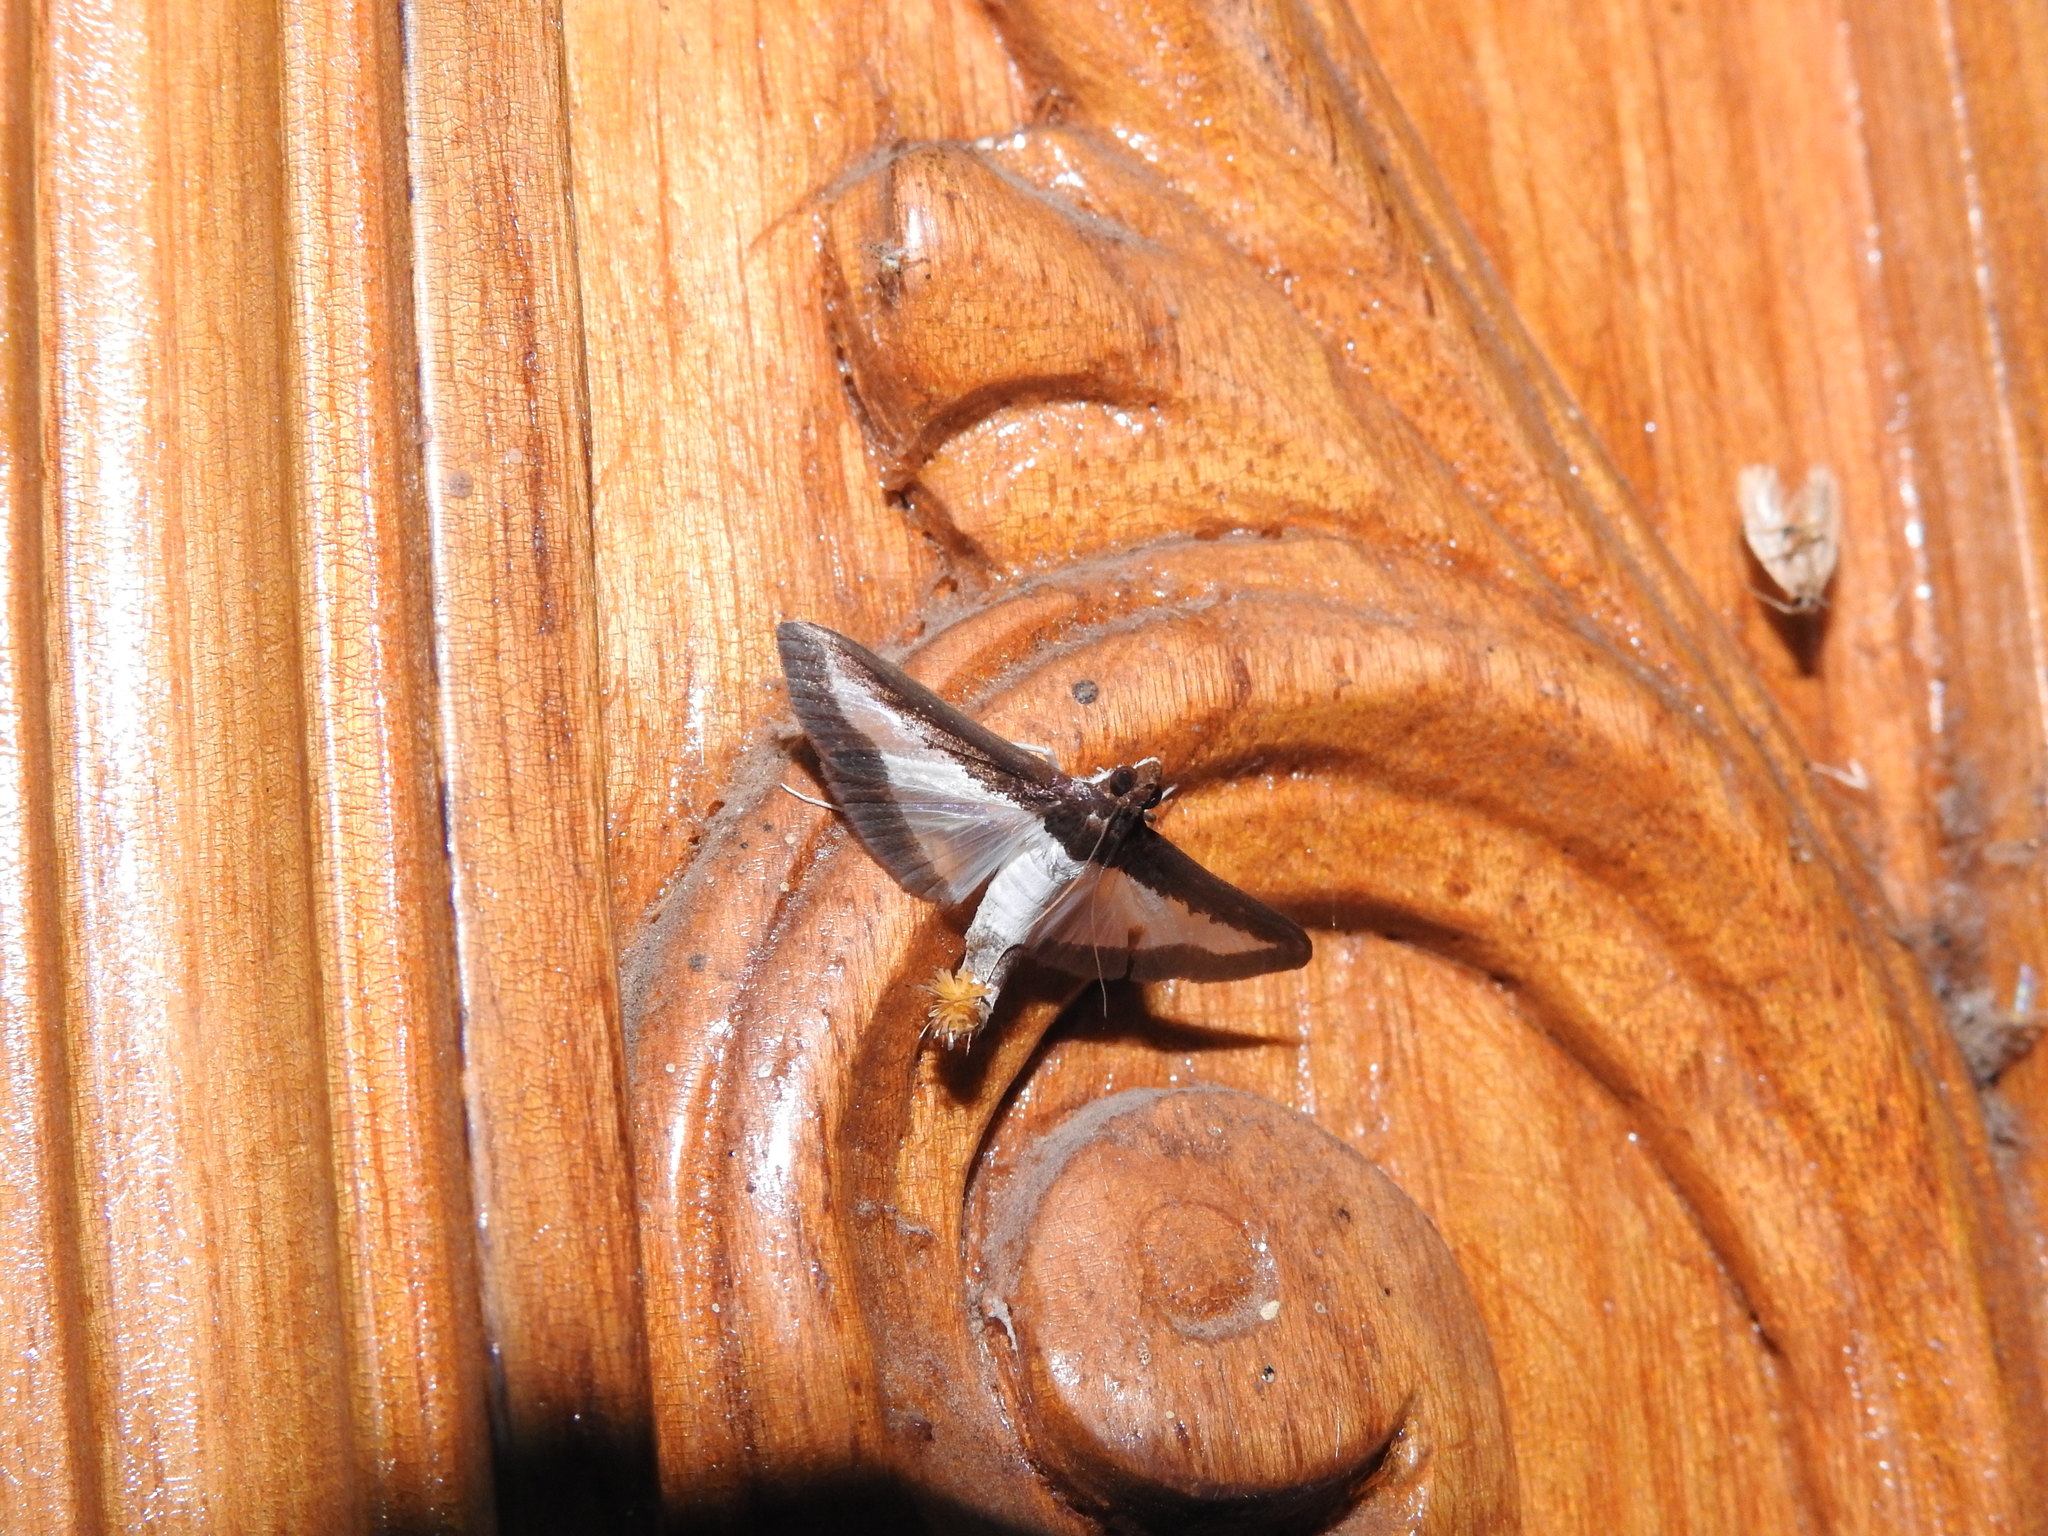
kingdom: Animalia
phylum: Arthropoda
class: Insecta
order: Lepidoptera
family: Crambidae
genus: Diaphania
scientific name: Diaphania indica
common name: Cucumber moth
